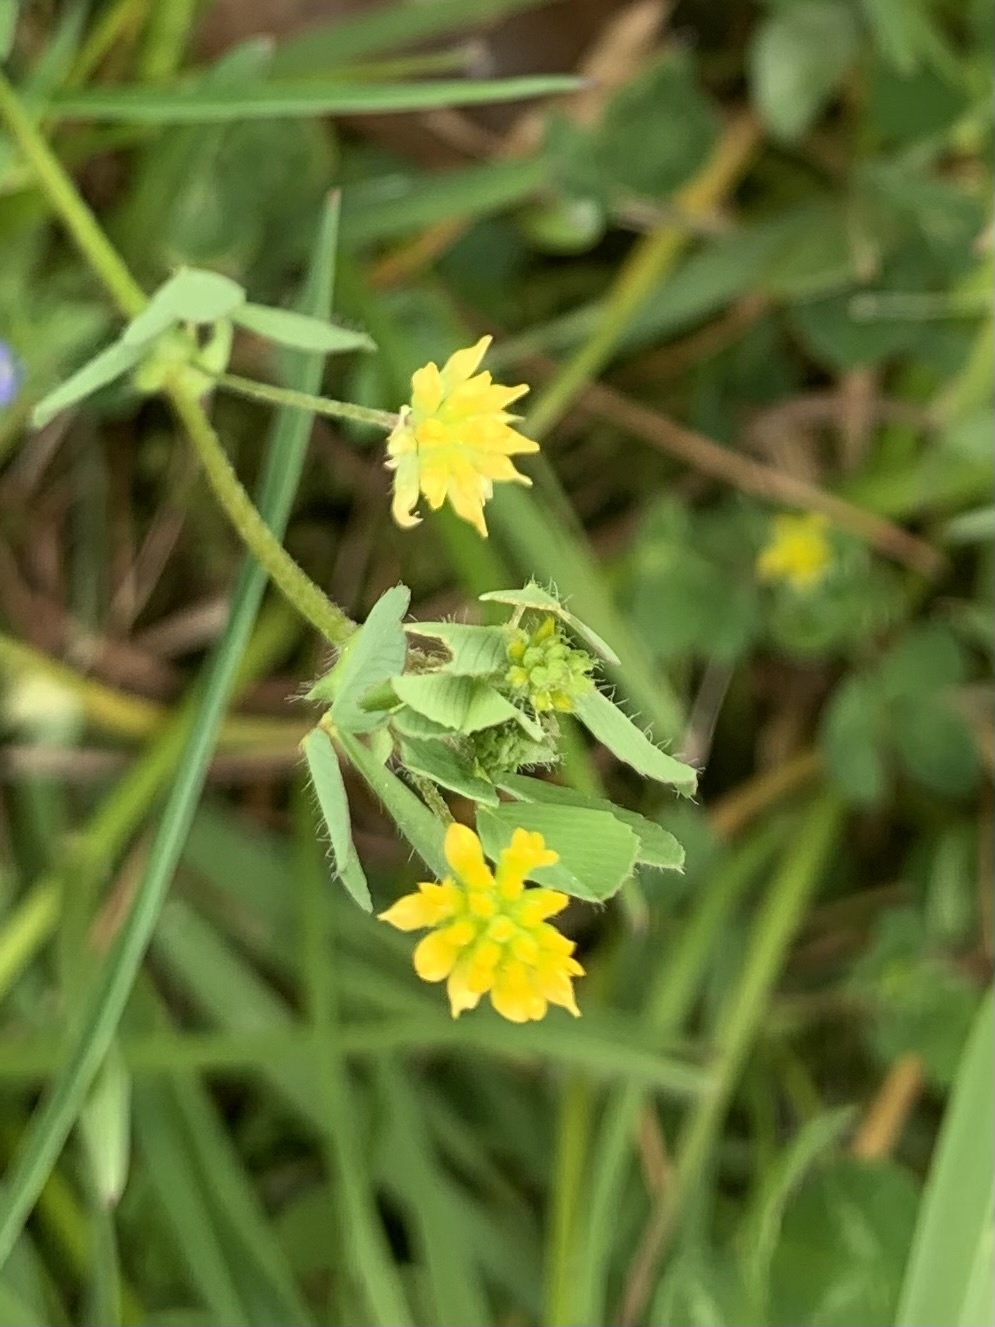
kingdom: Plantae
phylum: Tracheophyta
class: Magnoliopsida
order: Fabales
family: Fabaceae
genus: Trifolium
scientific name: Trifolium dubium
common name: Suckling clover
